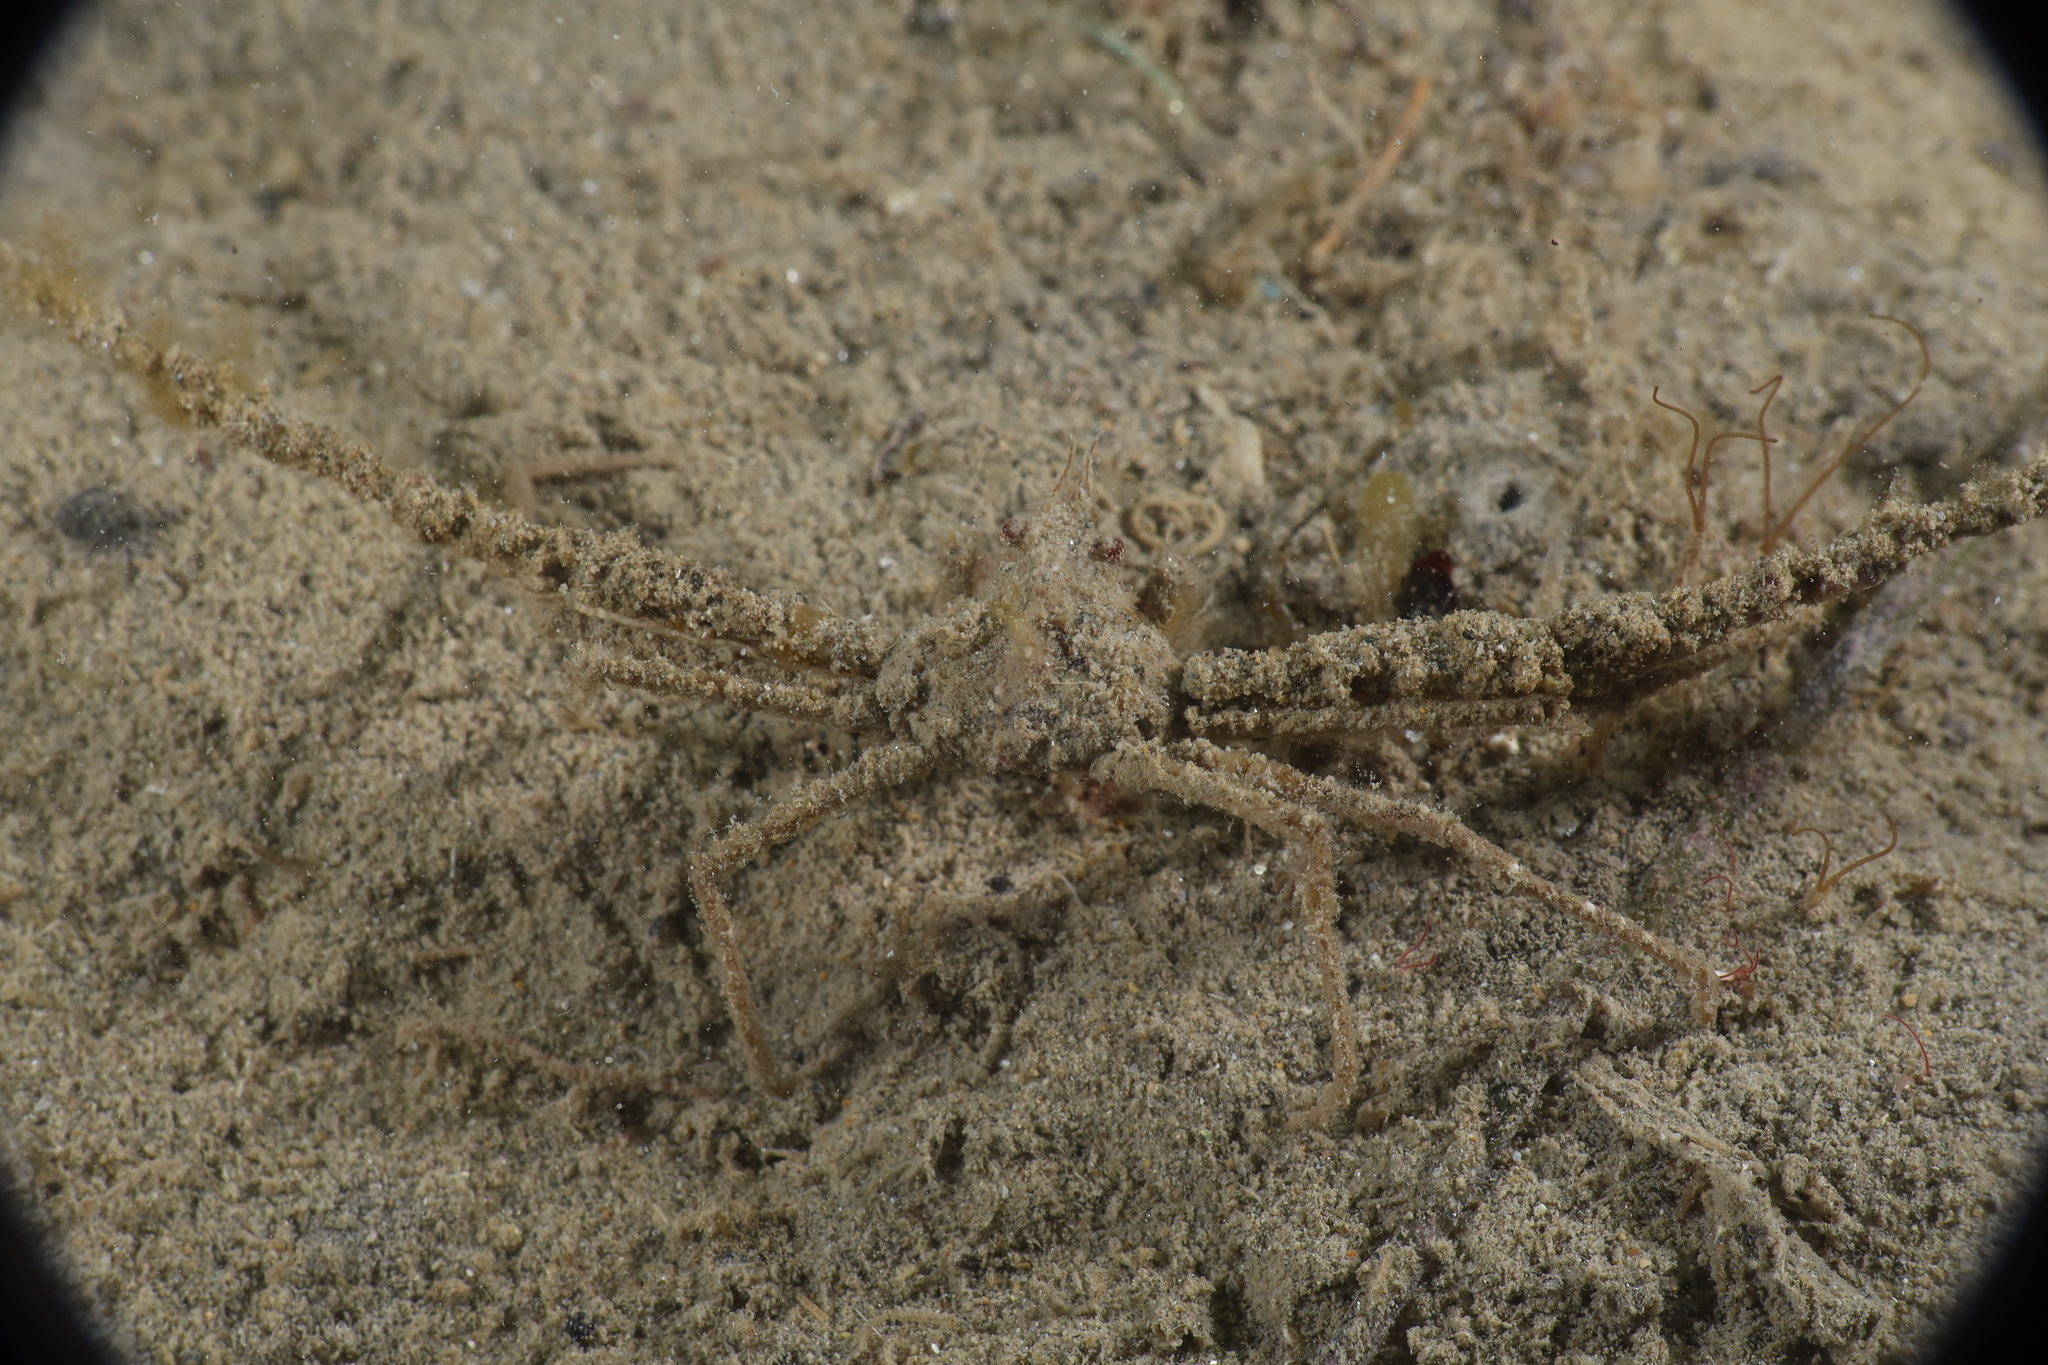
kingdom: Animalia
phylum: Arthropoda
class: Malacostraca
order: Decapoda
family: Inachidae
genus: Inachus
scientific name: Inachus phalangium
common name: Leach's spider crab
